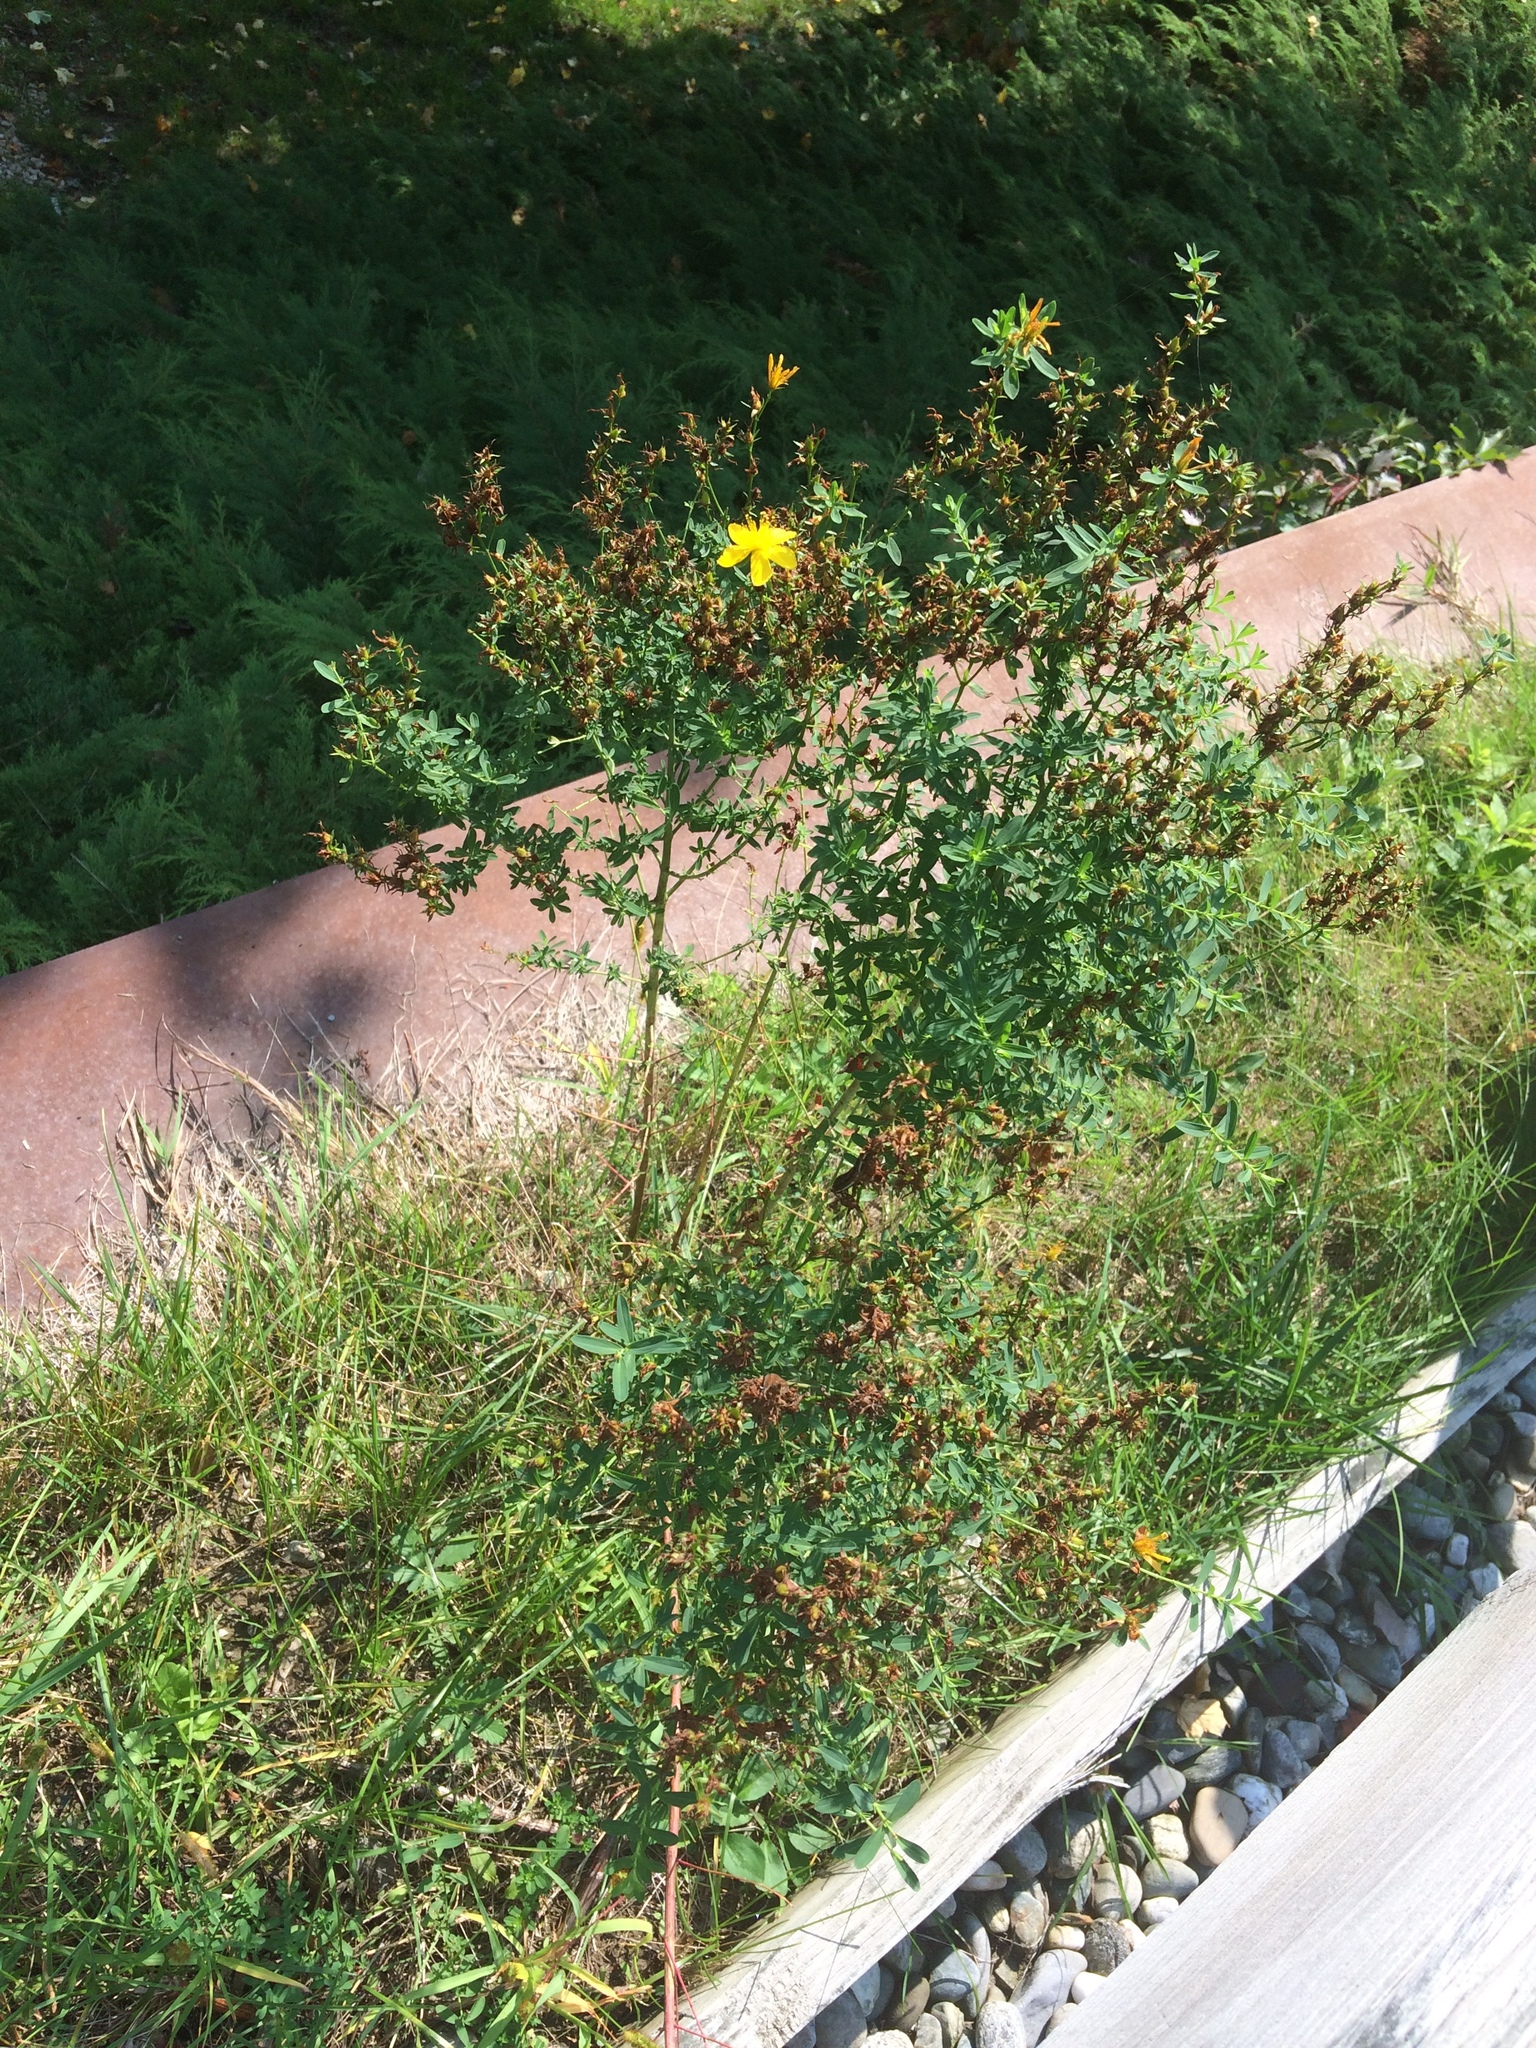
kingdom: Plantae
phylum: Tracheophyta
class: Magnoliopsida
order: Malpighiales
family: Hypericaceae
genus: Hypericum
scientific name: Hypericum perforatum
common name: Common st. johnswort
